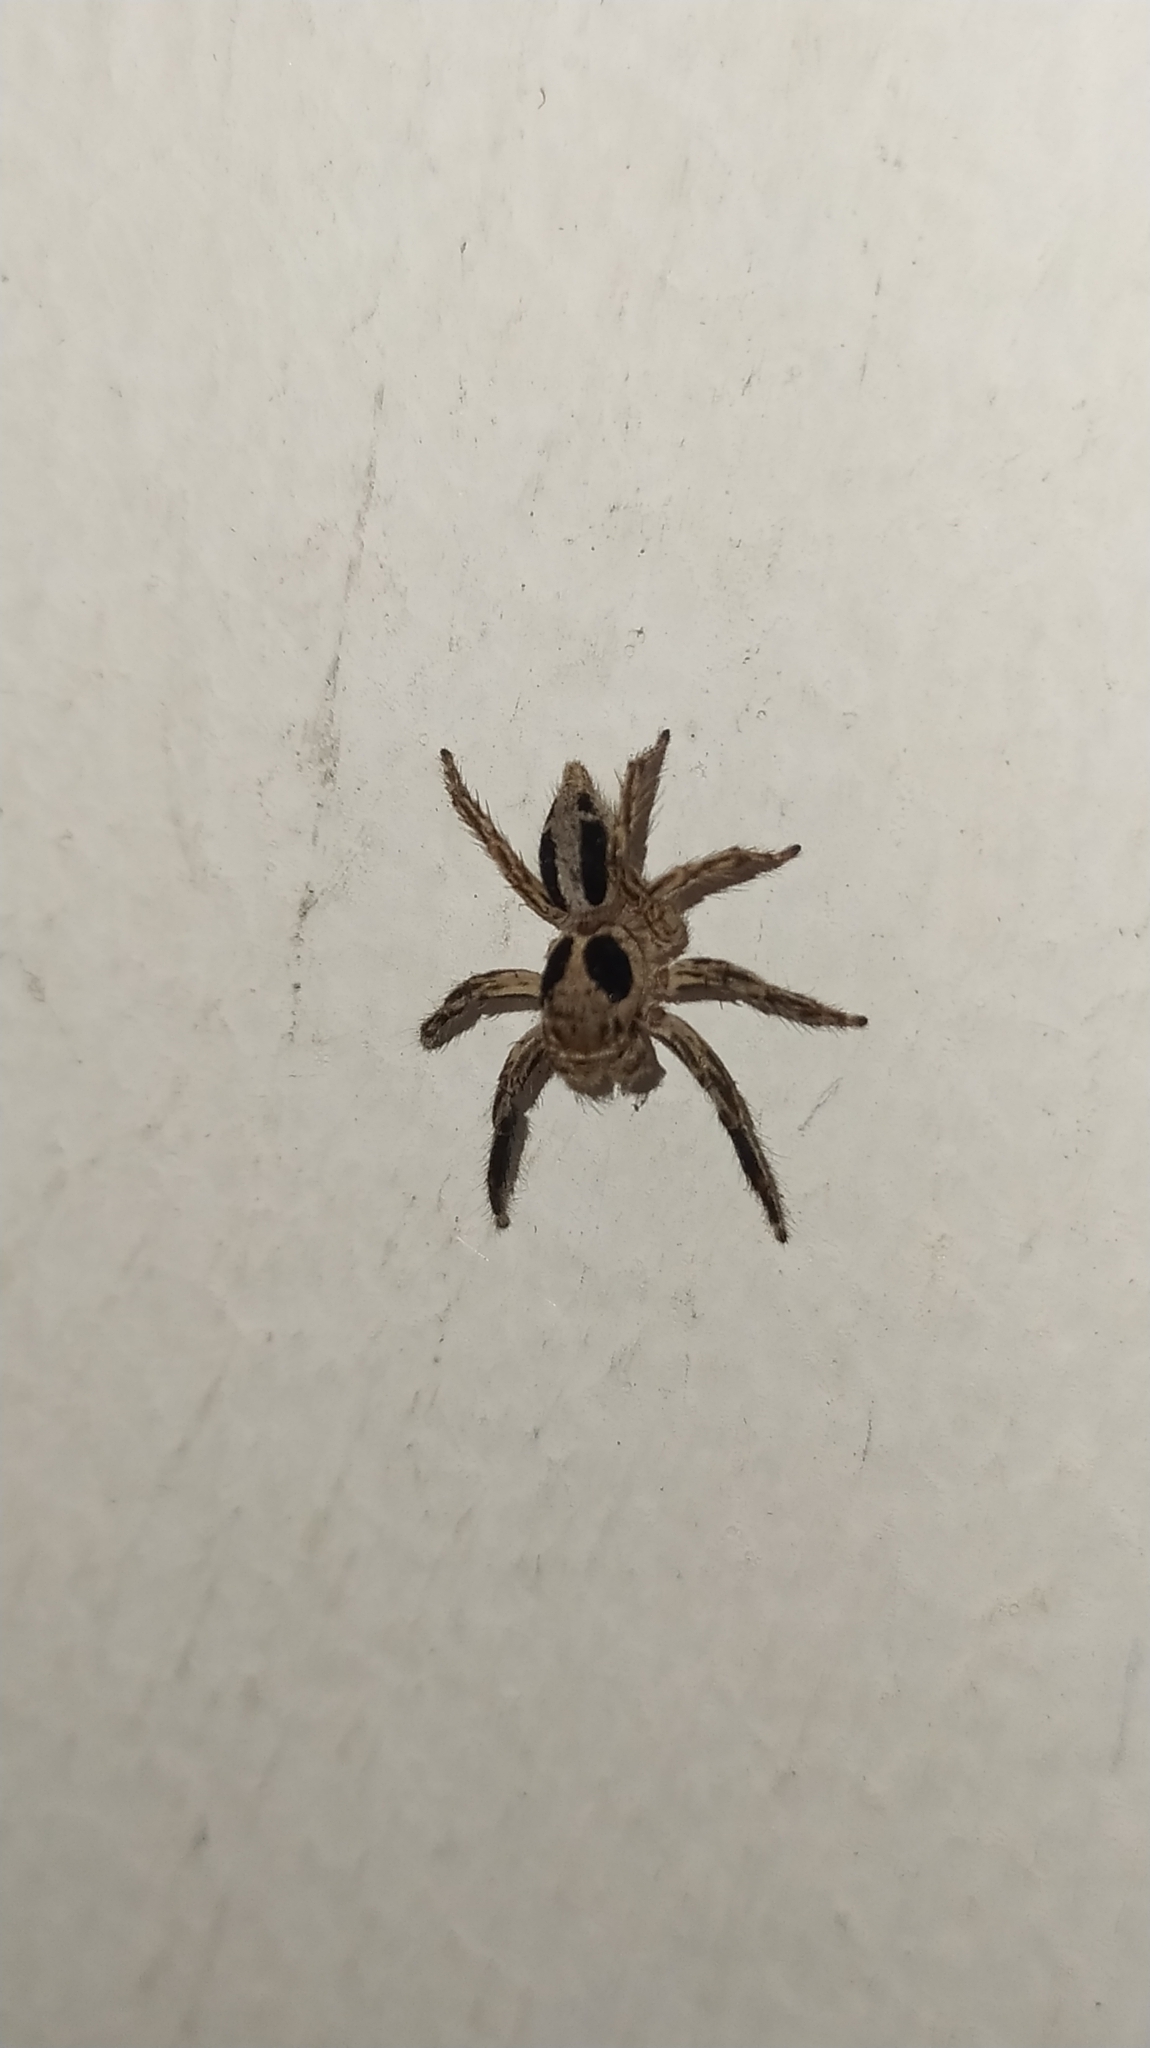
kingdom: Animalia
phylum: Arthropoda
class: Arachnida
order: Araneae
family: Salticidae
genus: Plexippus
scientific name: Plexippus petersi
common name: Jumping spider
